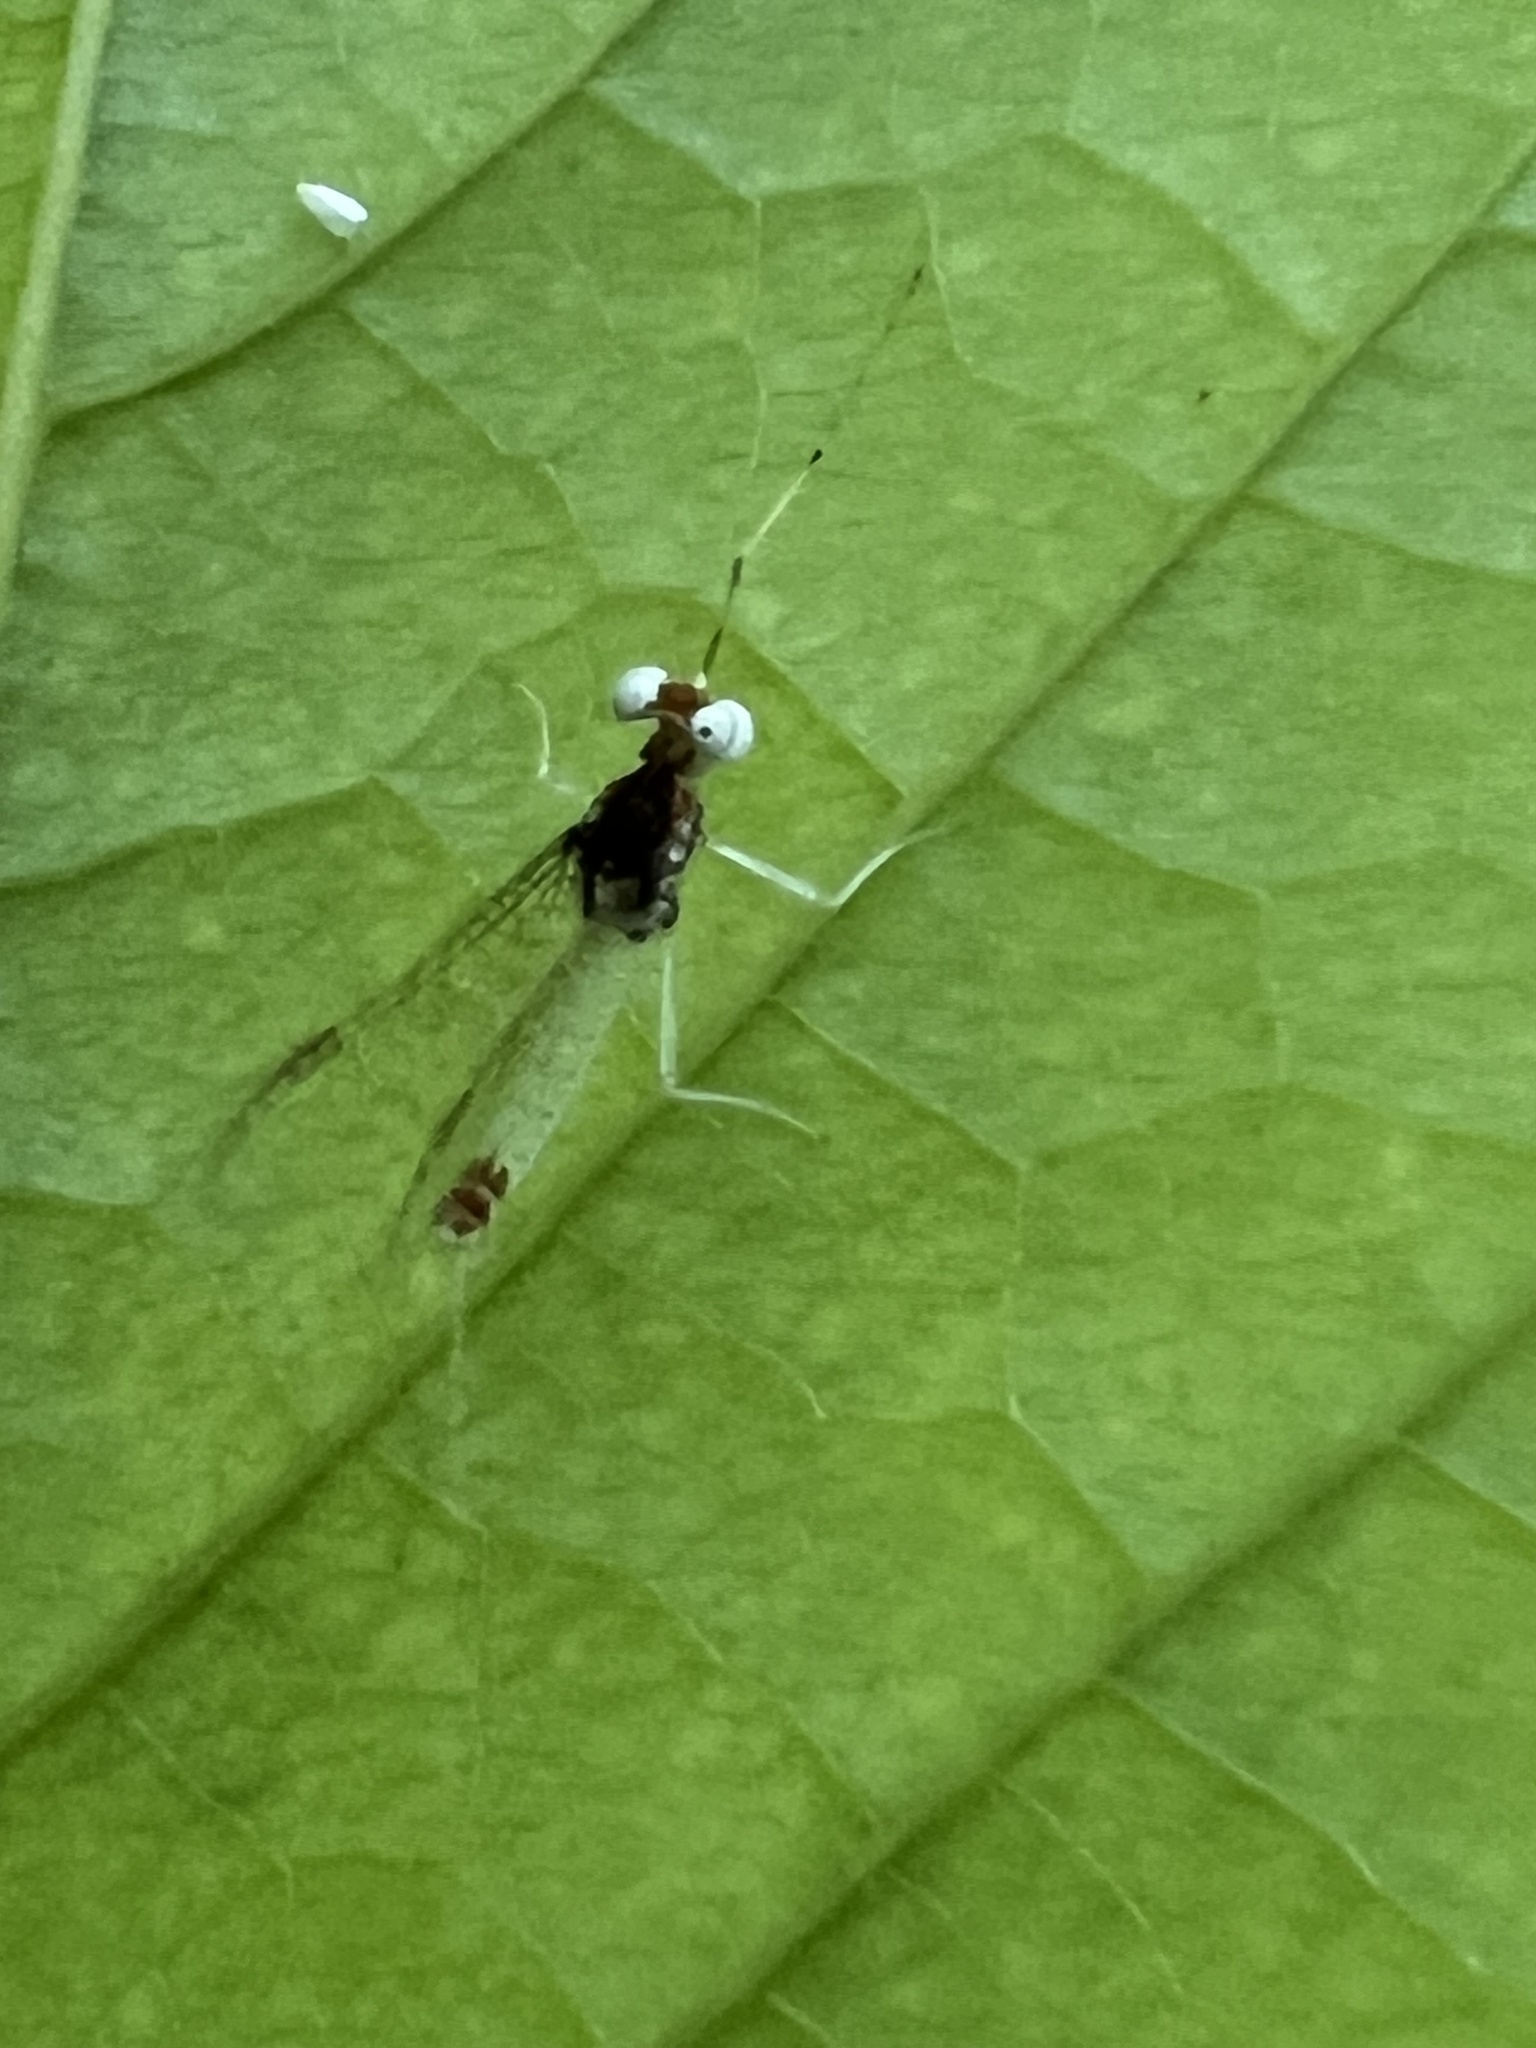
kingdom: Animalia
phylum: Arthropoda
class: Insecta
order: Ephemeroptera
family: Heptageniidae
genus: Maccaffertium
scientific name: Maccaffertium modestum
